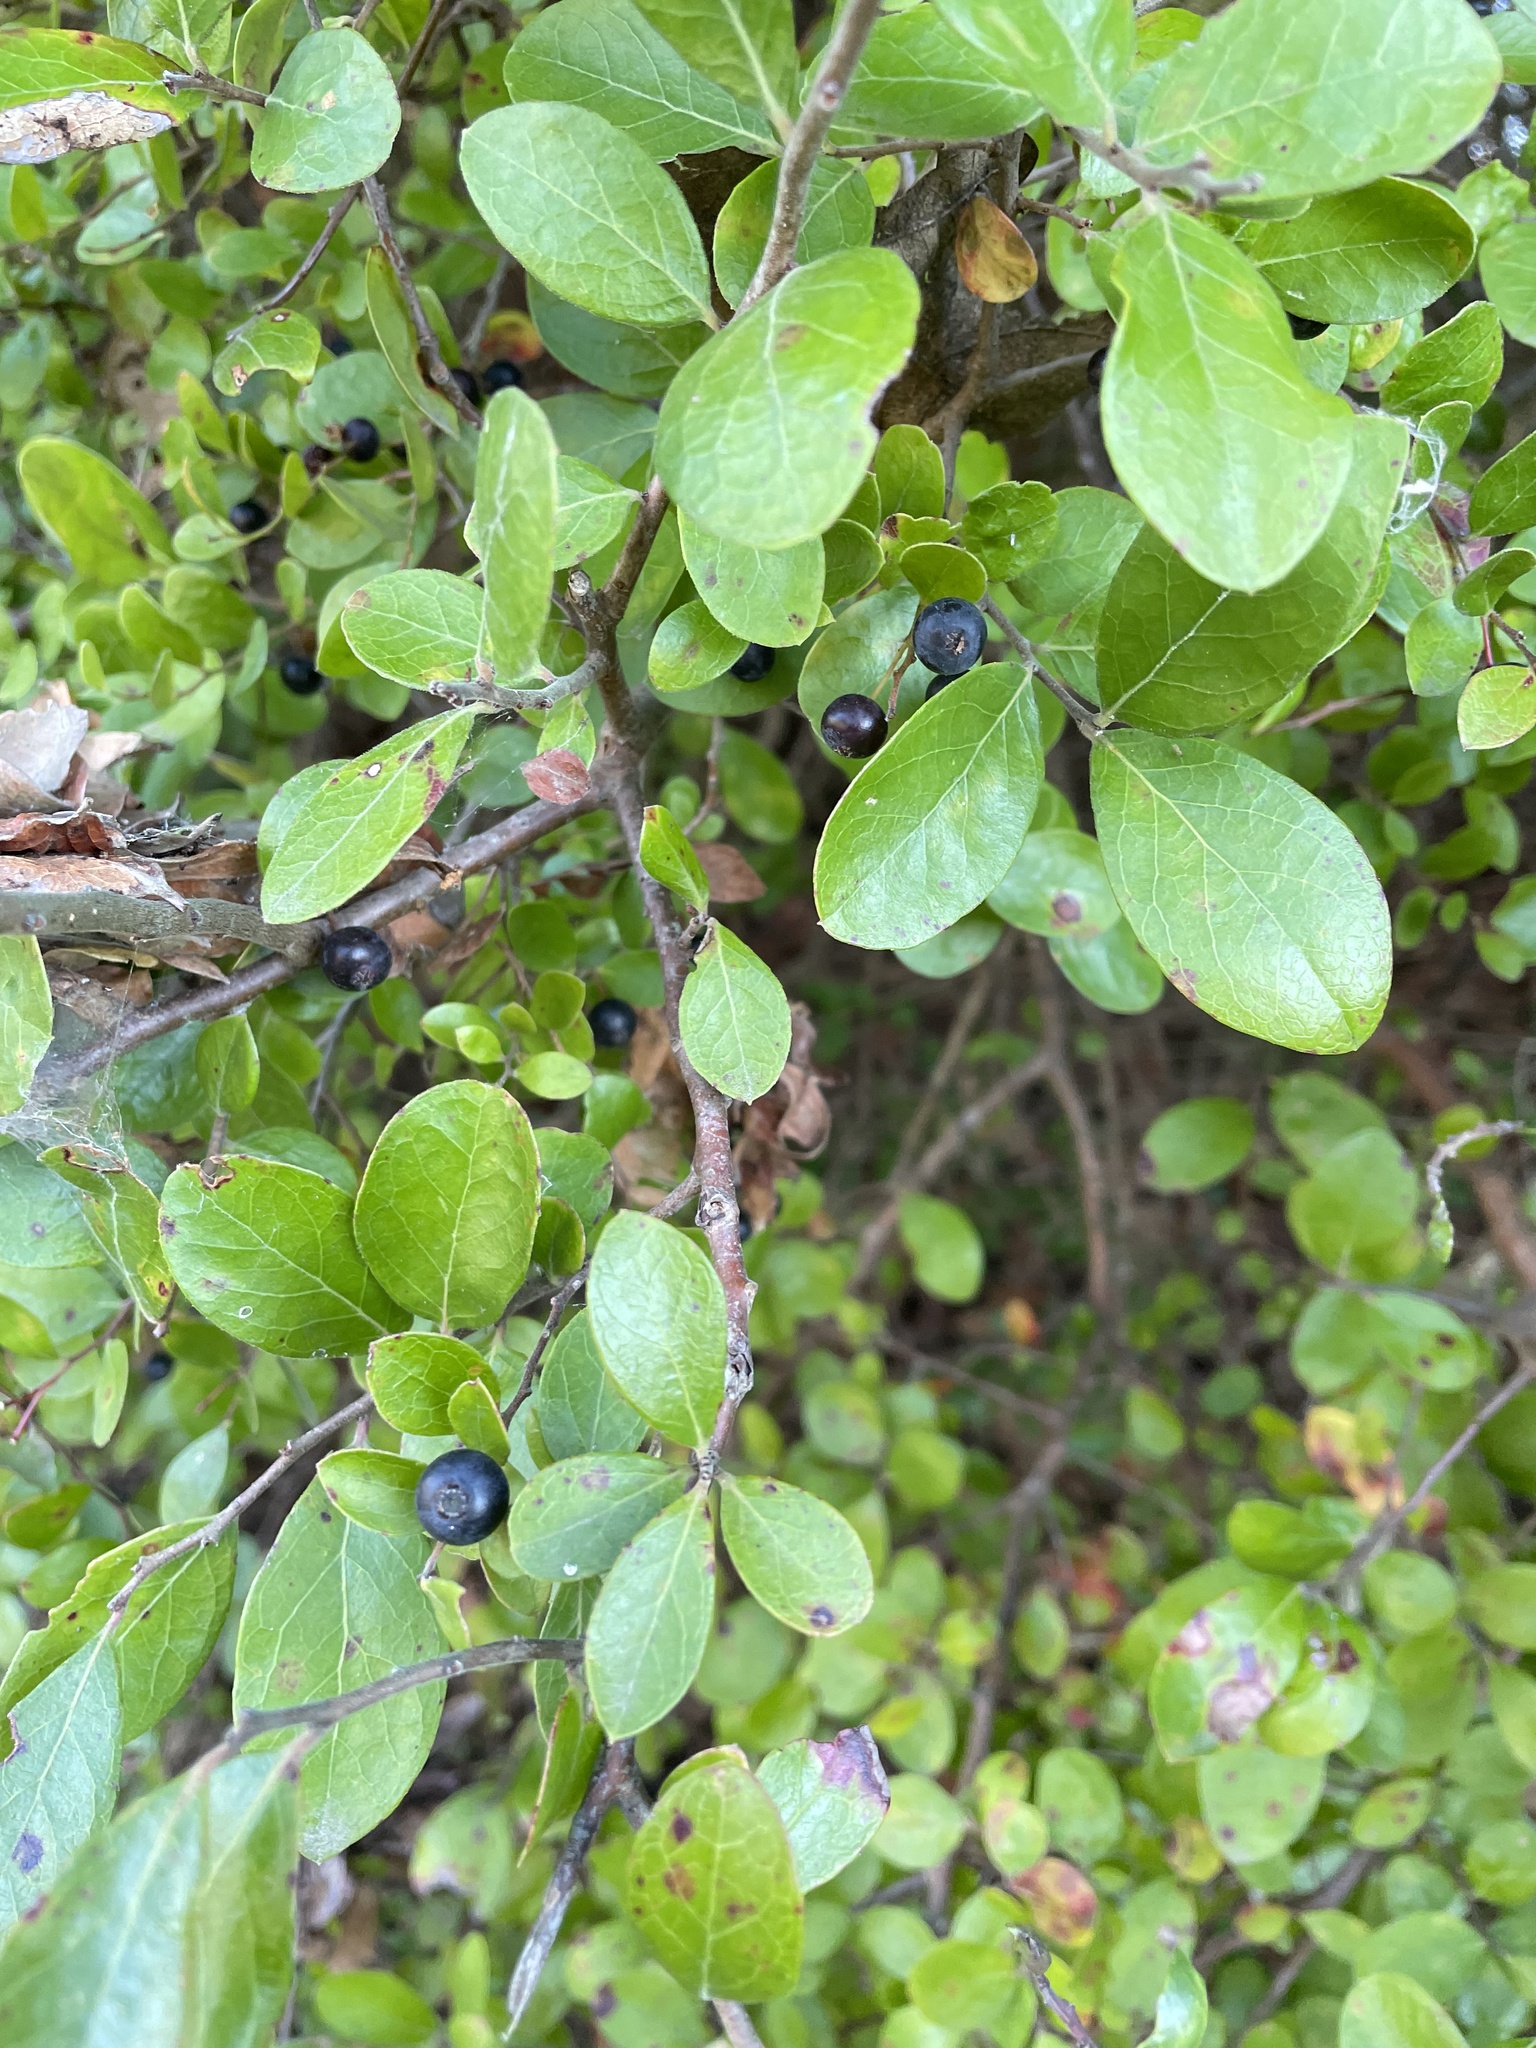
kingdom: Plantae
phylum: Tracheophyta
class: Magnoliopsida
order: Ericales
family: Ericaceae
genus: Vaccinium
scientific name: Vaccinium arboreum
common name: Farkleberry
